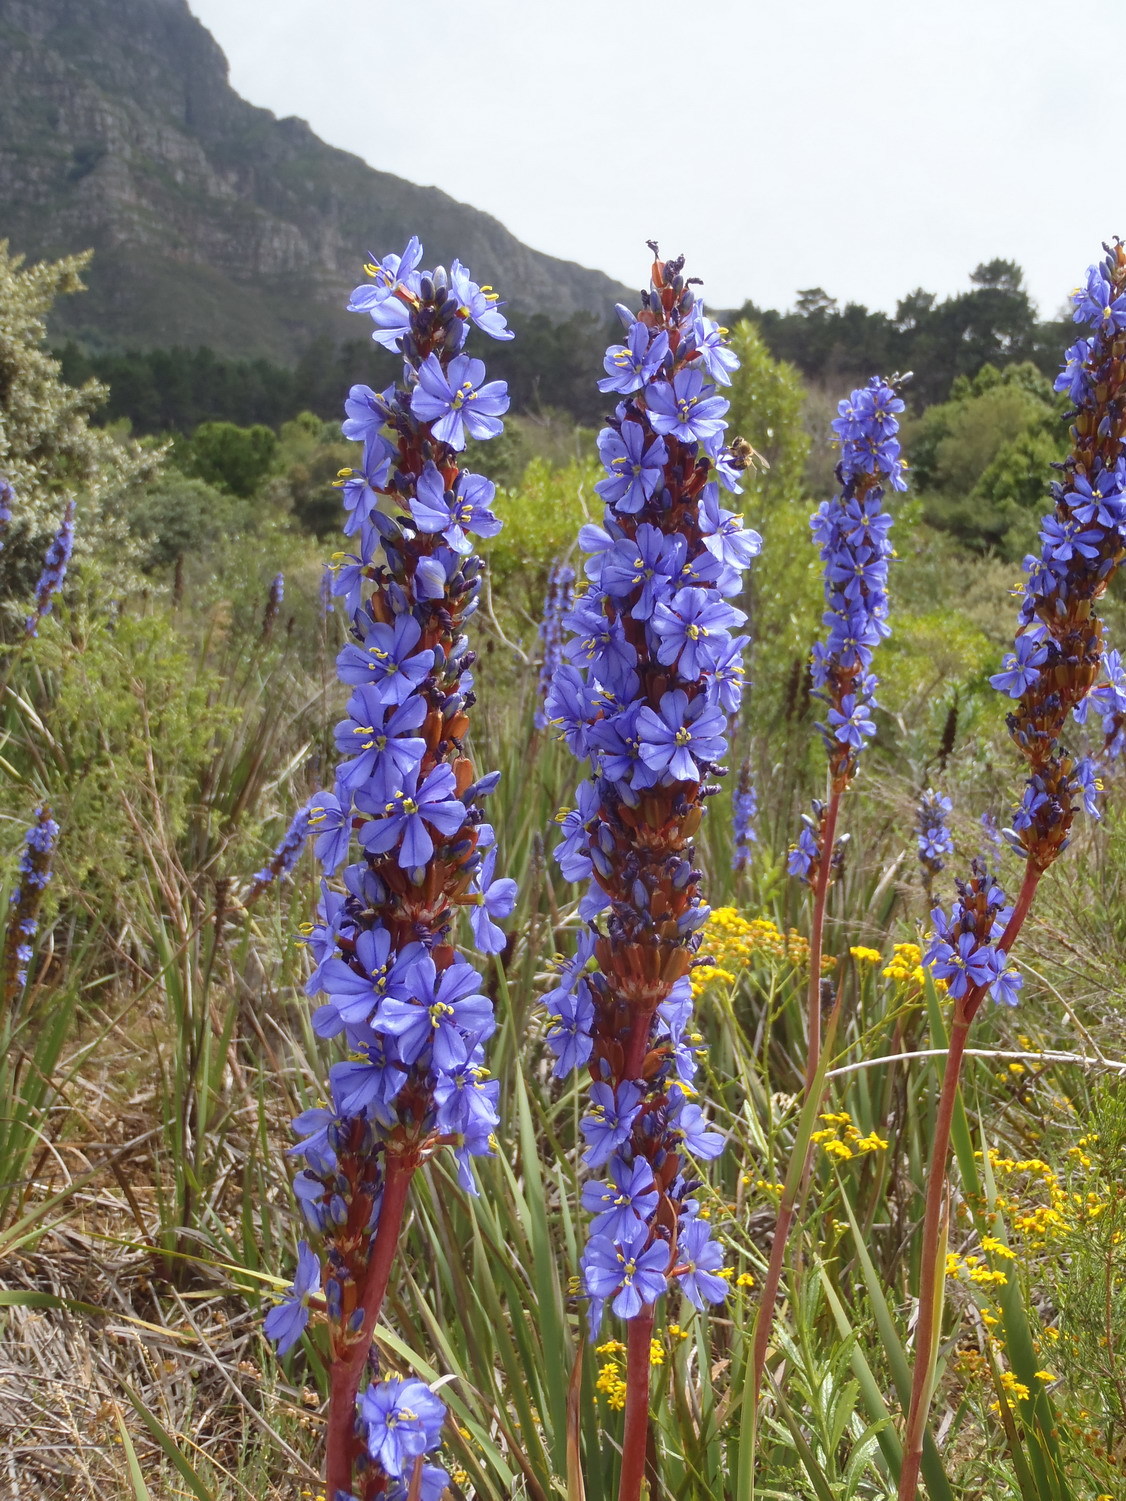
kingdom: Plantae
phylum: Tracheophyta
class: Liliopsida
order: Asparagales
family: Iridaceae
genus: Aristea
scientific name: Aristea capitata
